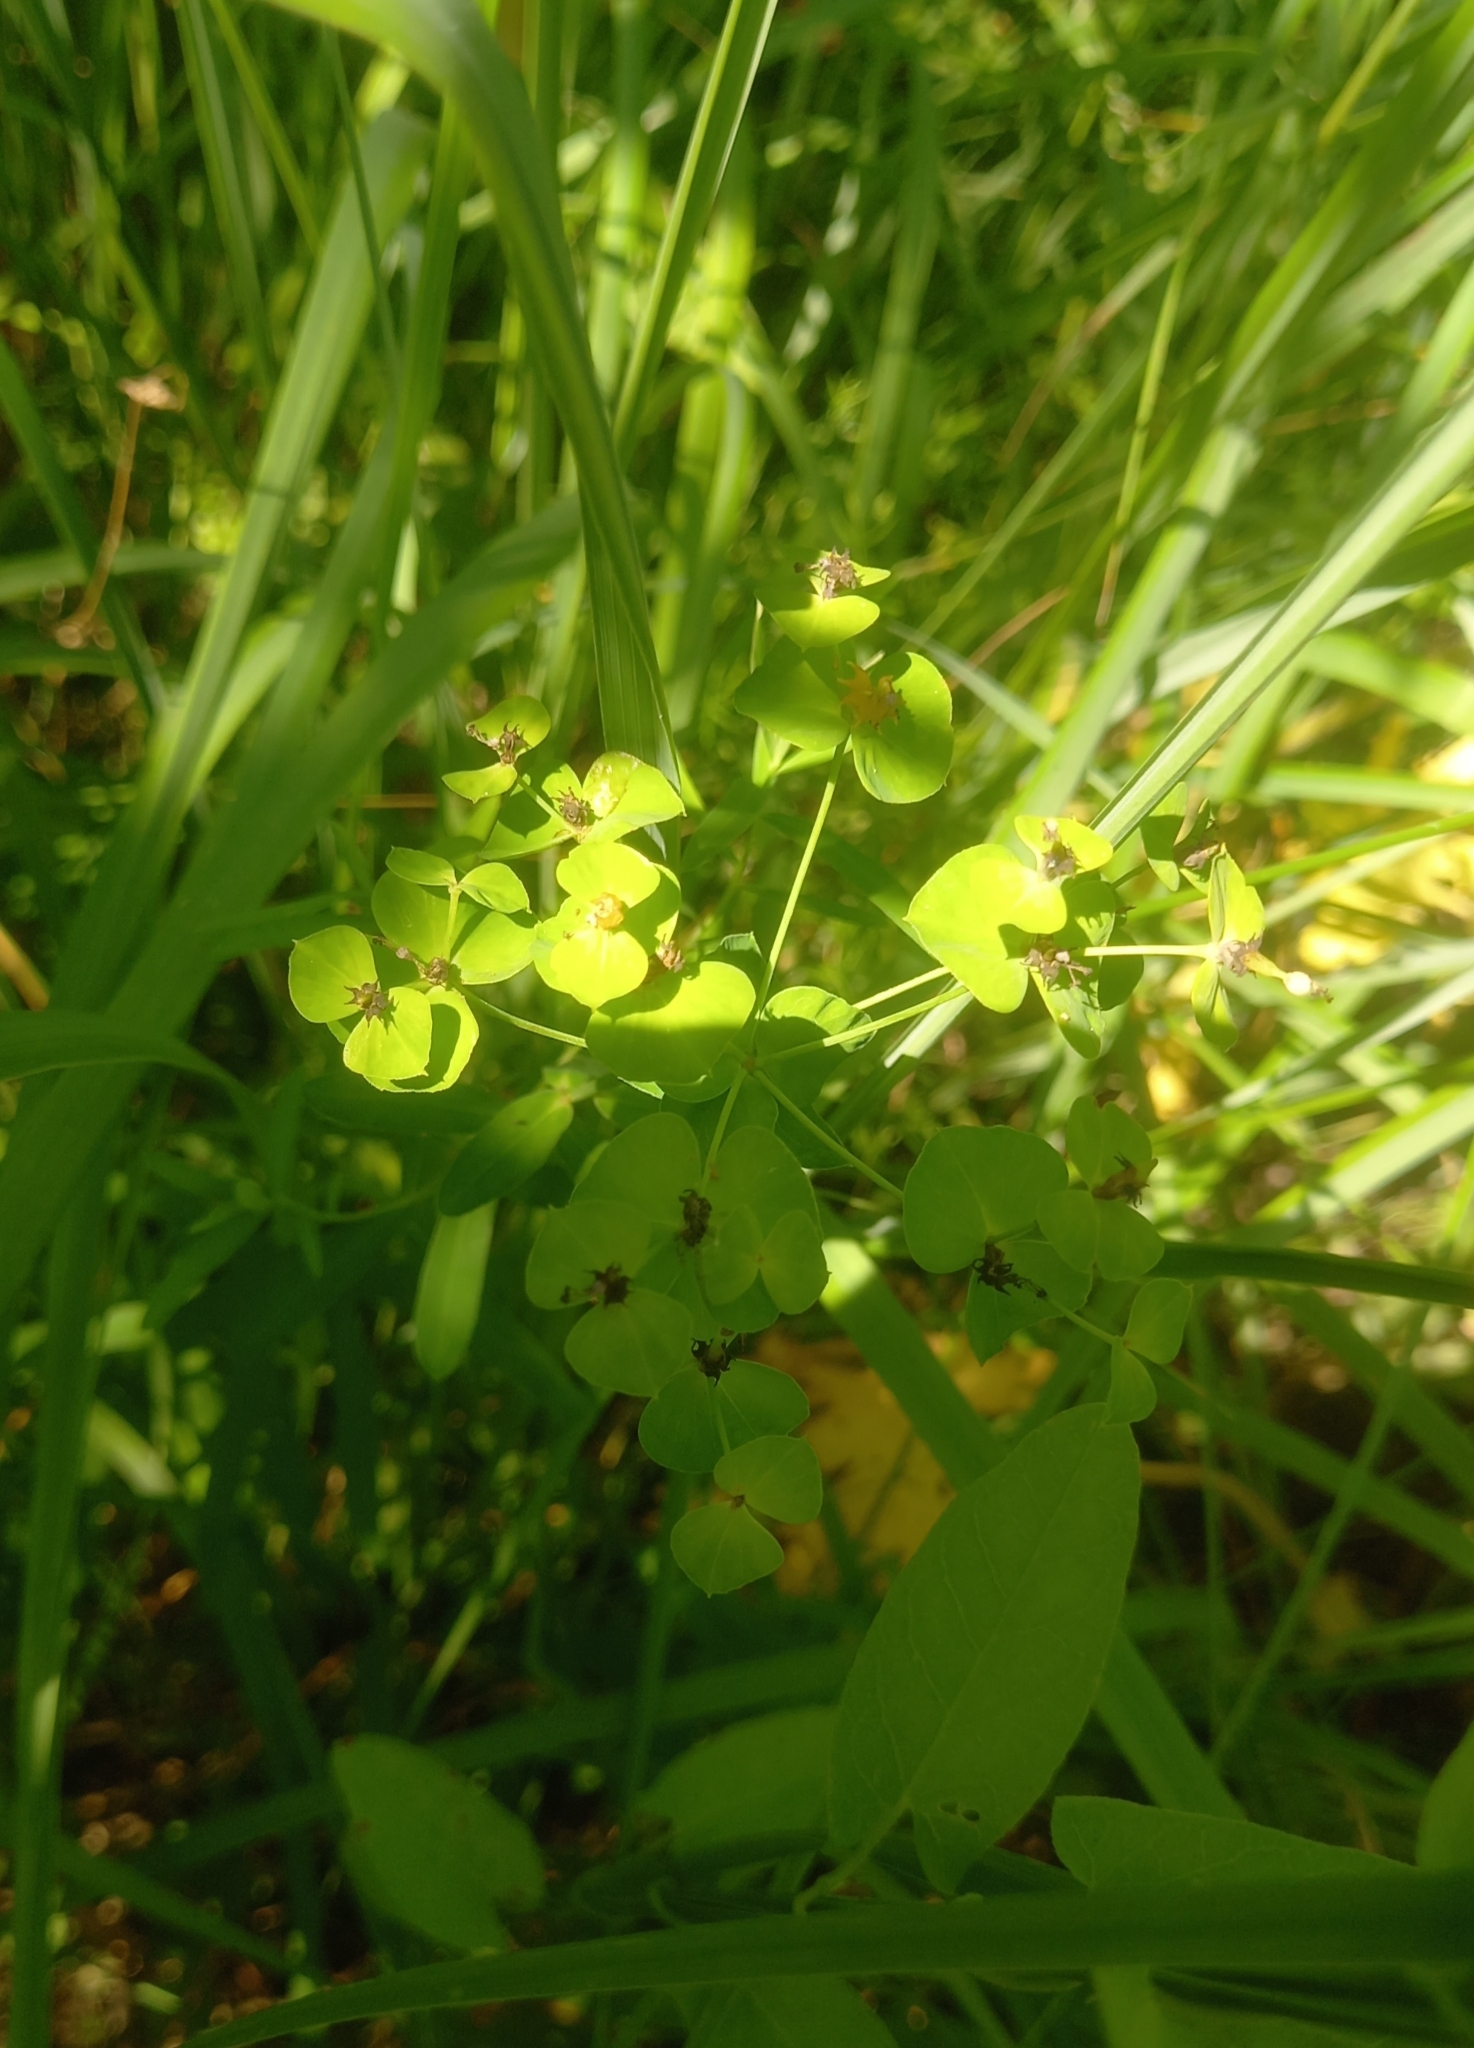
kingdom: Plantae
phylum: Tracheophyta
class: Magnoliopsida
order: Malpighiales
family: Euphorbiaceae
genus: Euphorbia
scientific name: Euphorbia virgata
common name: Leafy spurge
